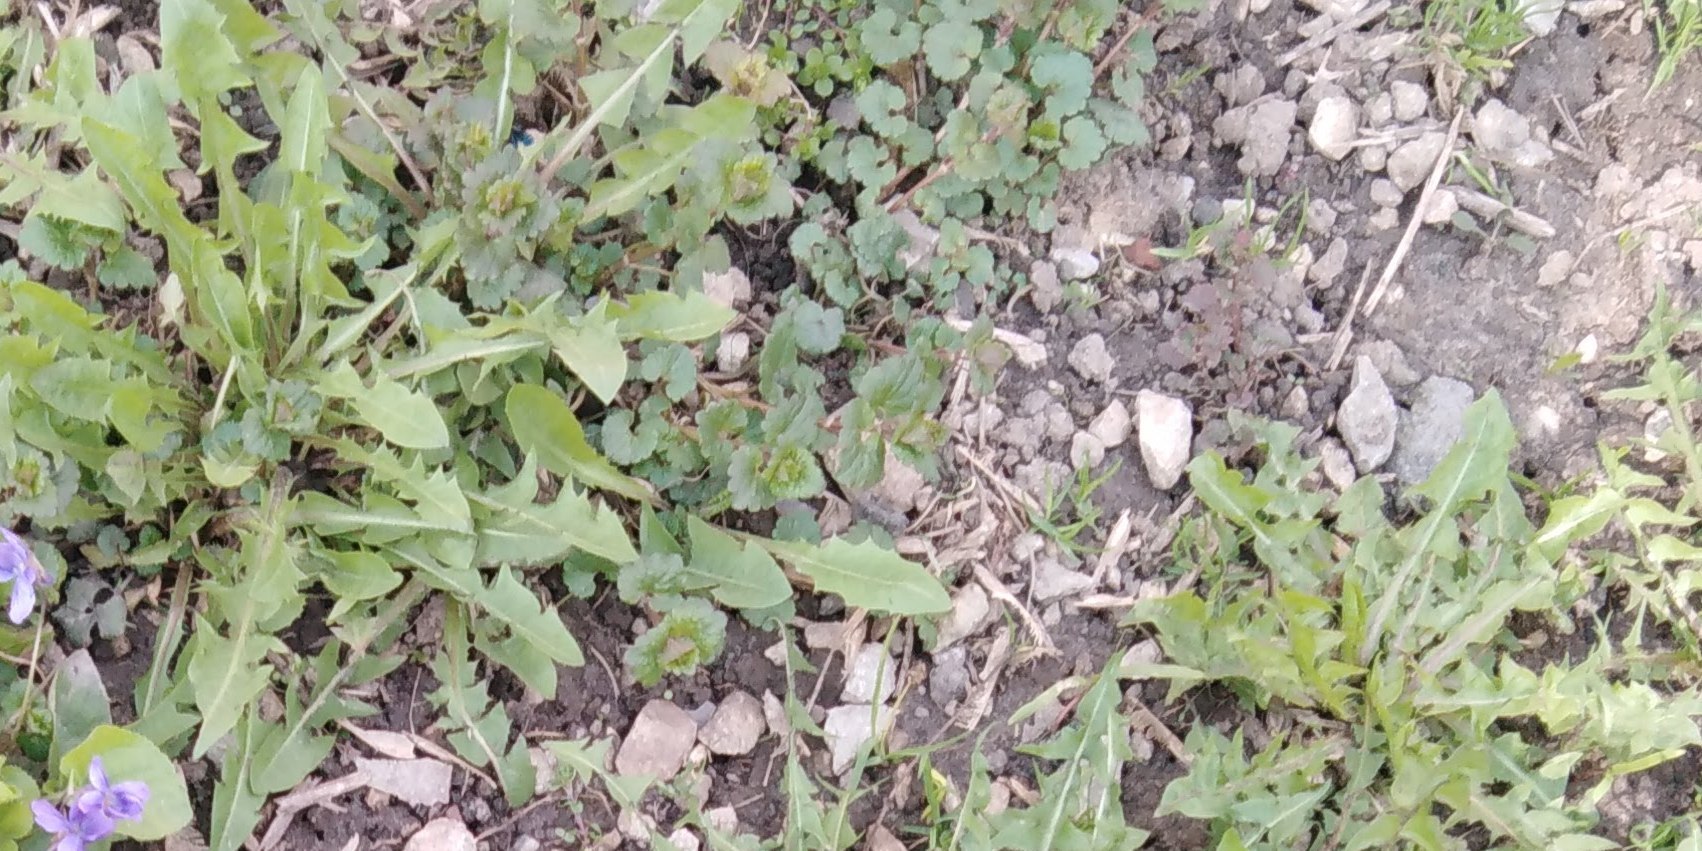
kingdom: Plantae
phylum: Tracheophyta
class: Magnoliopsida
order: Asterales
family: Asteraceae
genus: Taraxacum
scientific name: Taraxacum officinale
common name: Common dandelion
